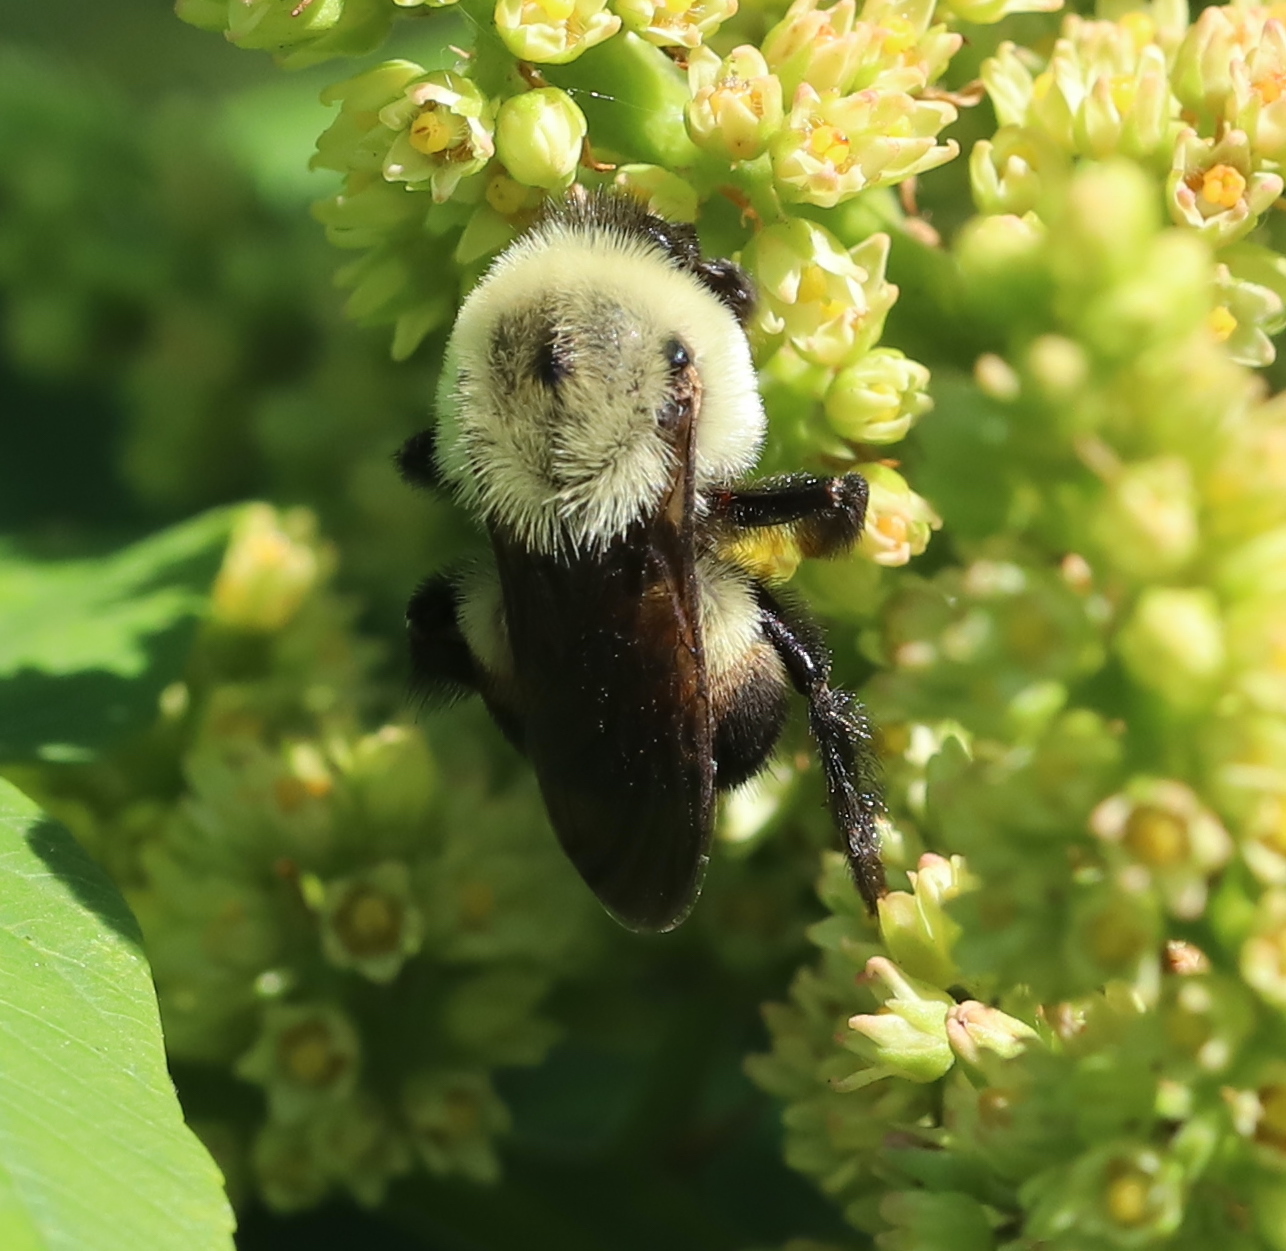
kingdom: Animalia
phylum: Arthropoda
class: Insecta
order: Hymenoptera
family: Apidae
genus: Bombus
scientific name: Bombus griseocollis
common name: Brown-belted bumble bee
